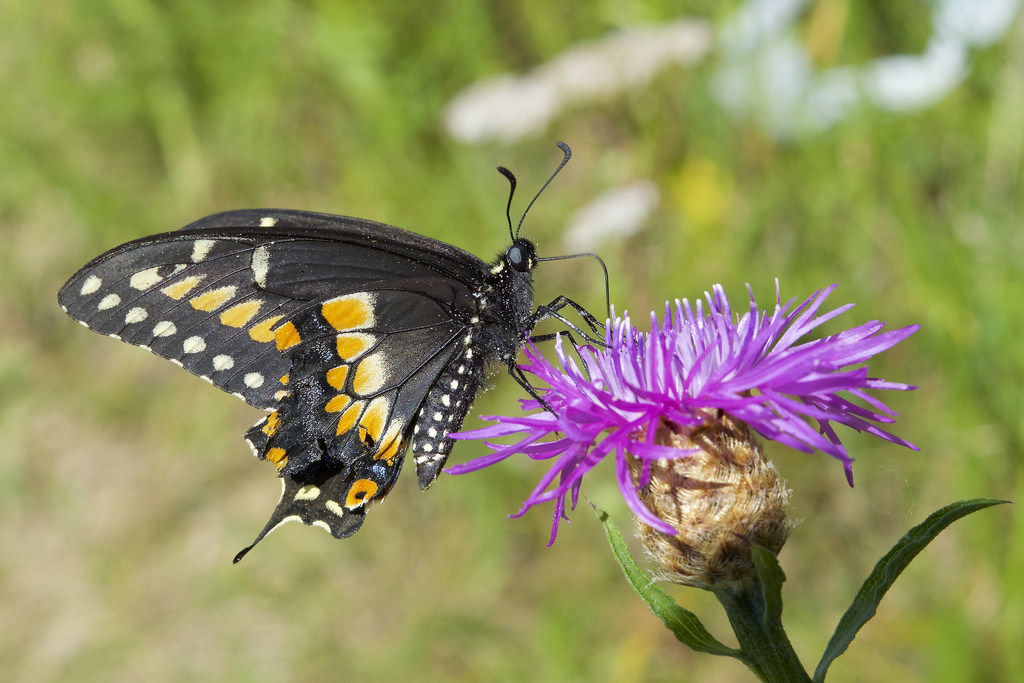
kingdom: Animalia
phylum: Arthropoda
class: Insecta
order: Lepidoptera
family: Papilionidae
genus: Papilio
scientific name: Papilio polyxenes
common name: Black swallowtail
